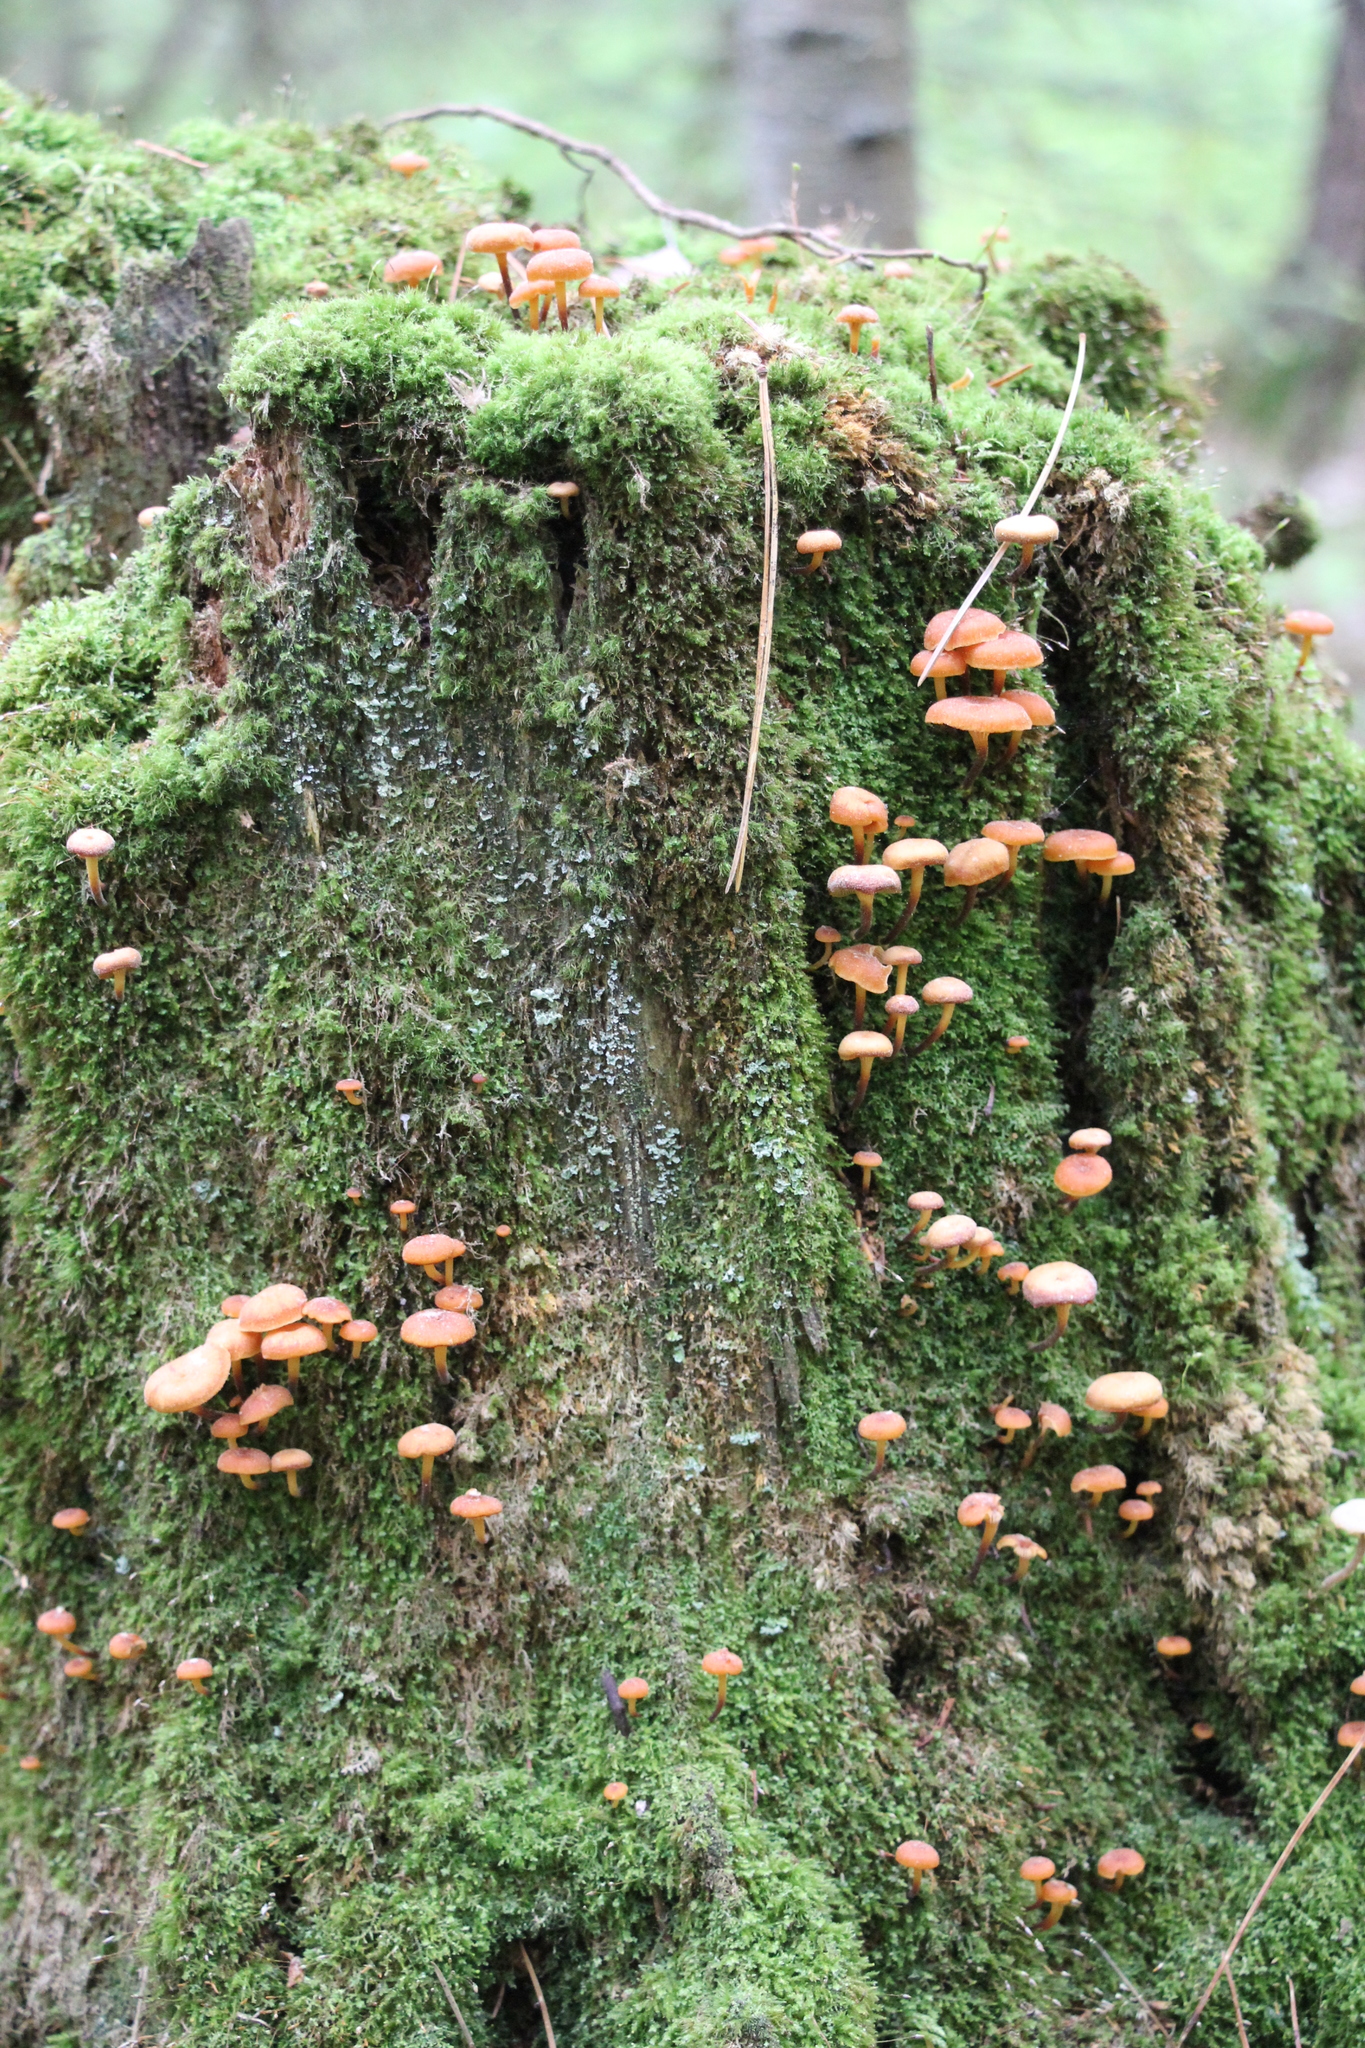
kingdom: Fungi
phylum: Basidiomycota
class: Agaricomycetes
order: Agaricales
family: Mycenaceae
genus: Xeromphalina
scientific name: Xeromphalina campanella
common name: Pinewood gingertail
